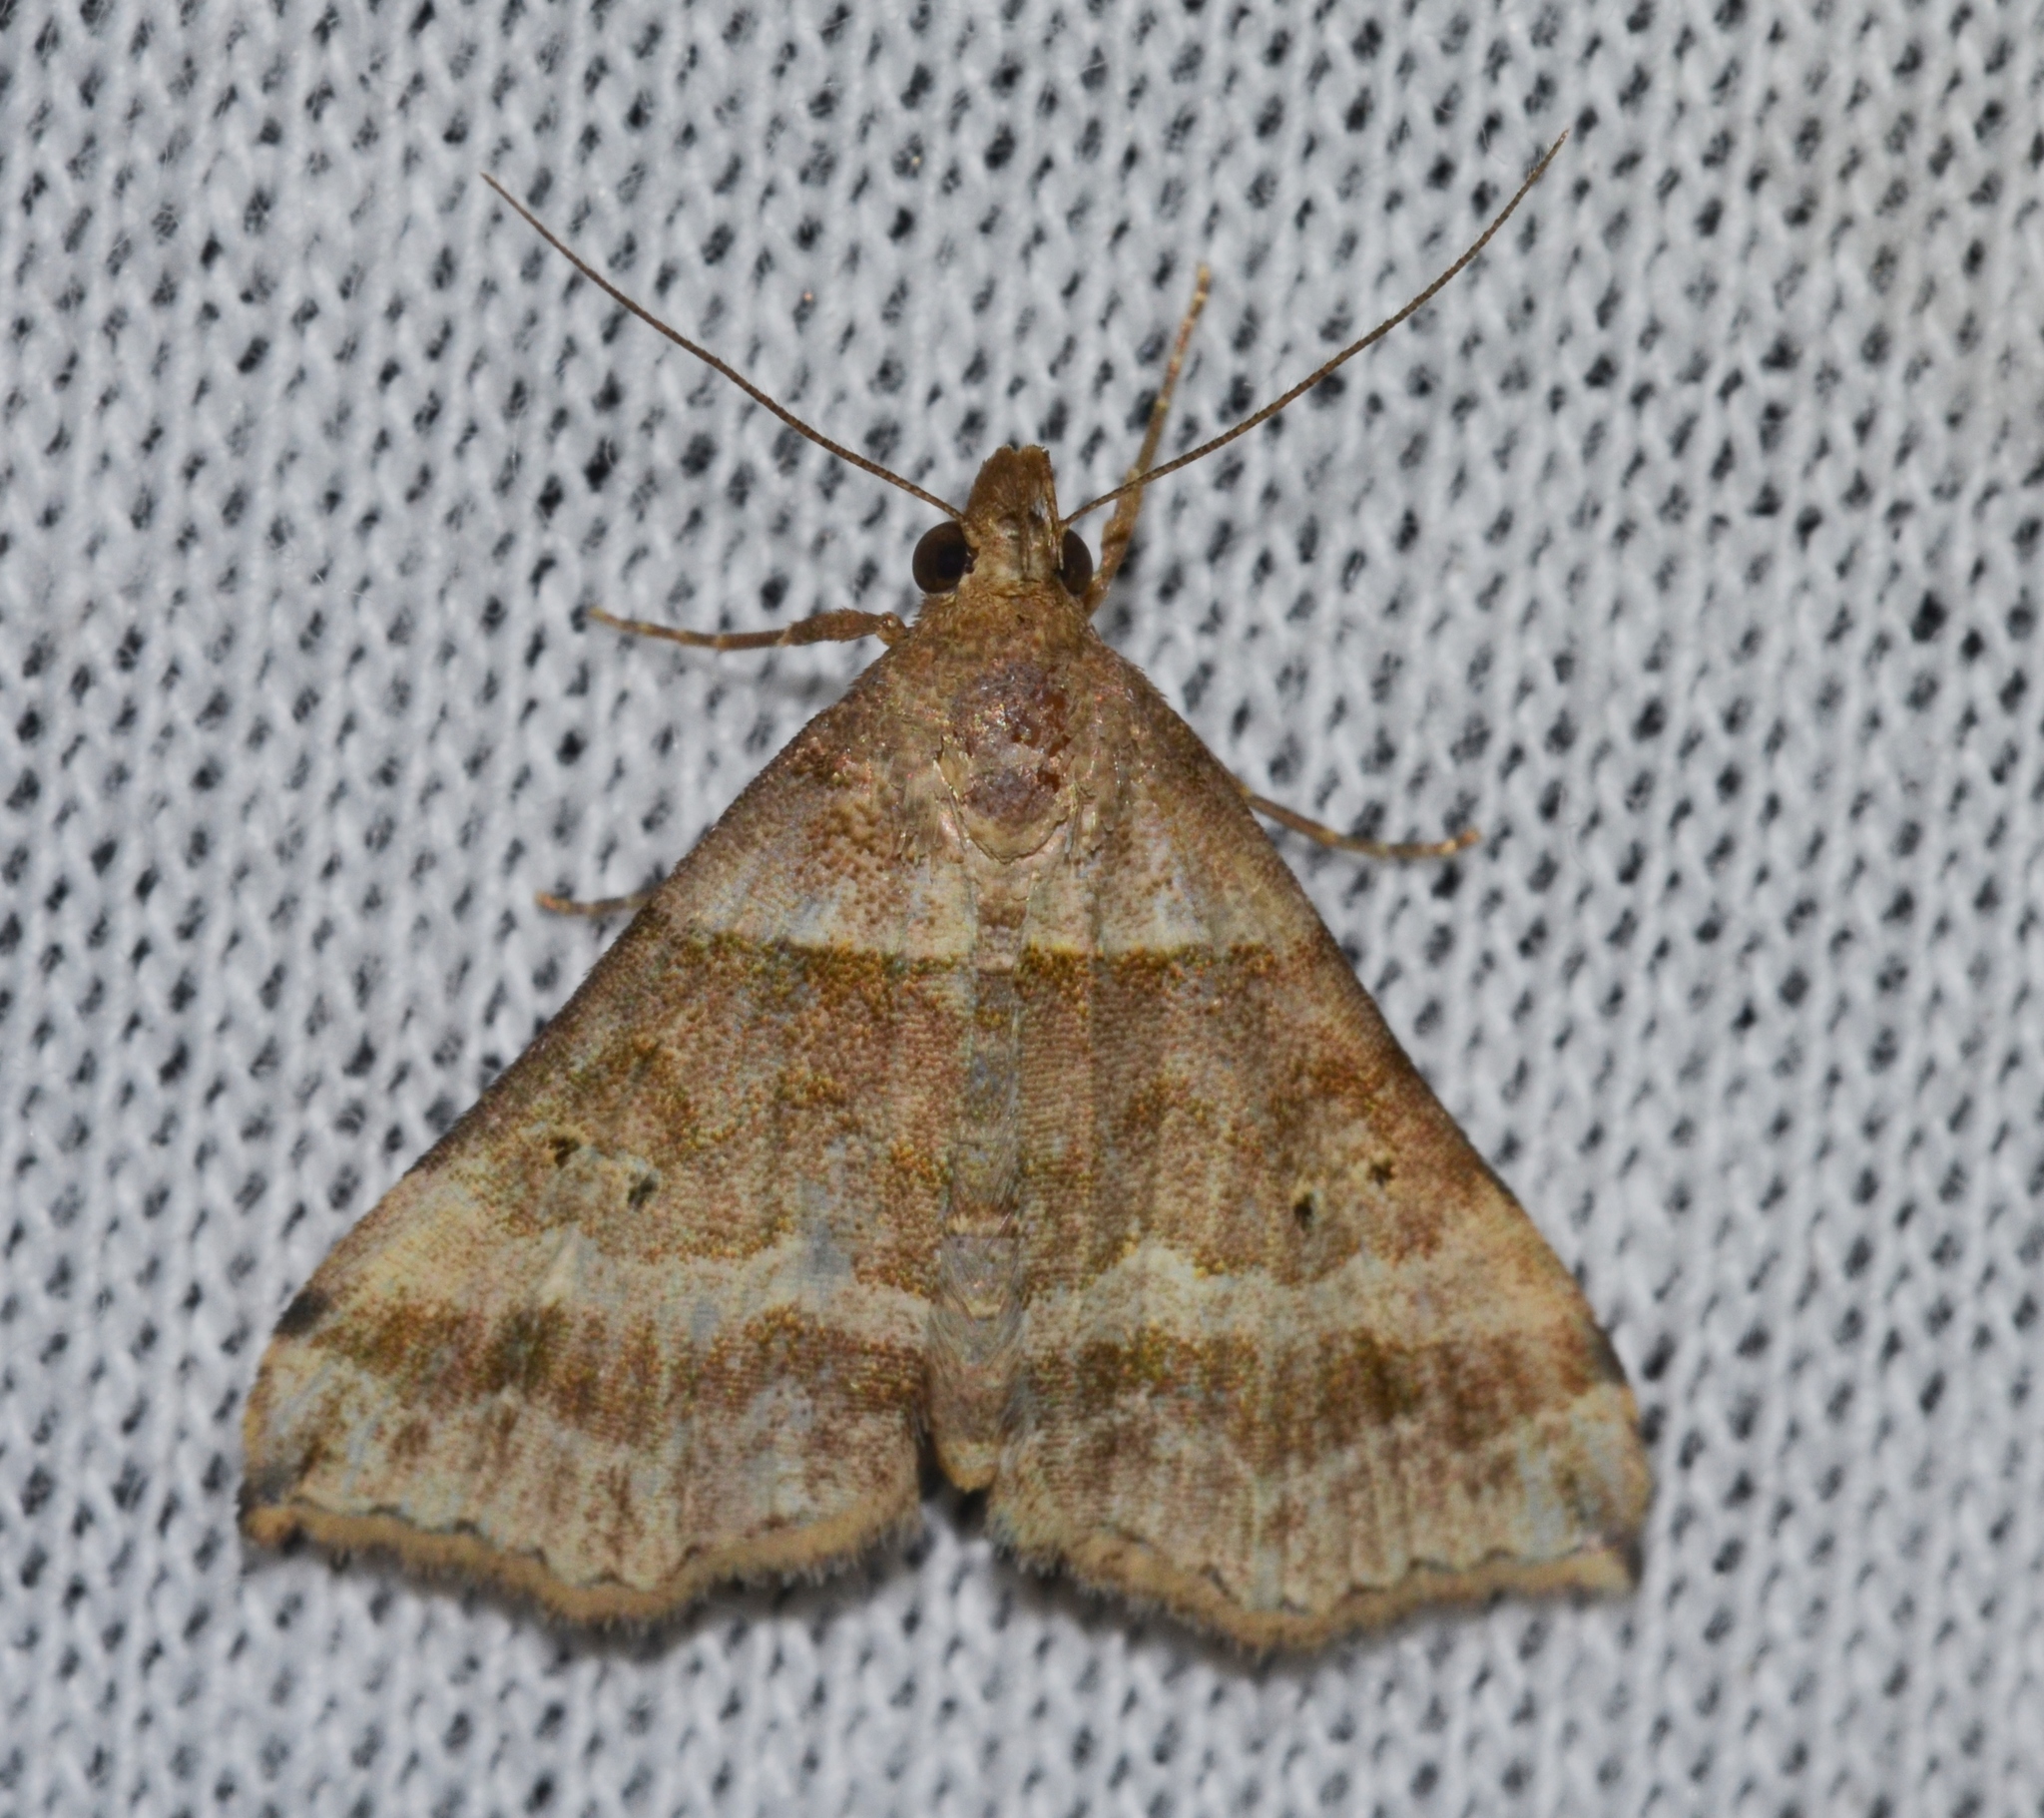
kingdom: Animalia
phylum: Arthropoda
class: Insecta
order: Lepidoptera
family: Erebidae
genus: Phaeolita
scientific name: Phaeolita pyramusalis
